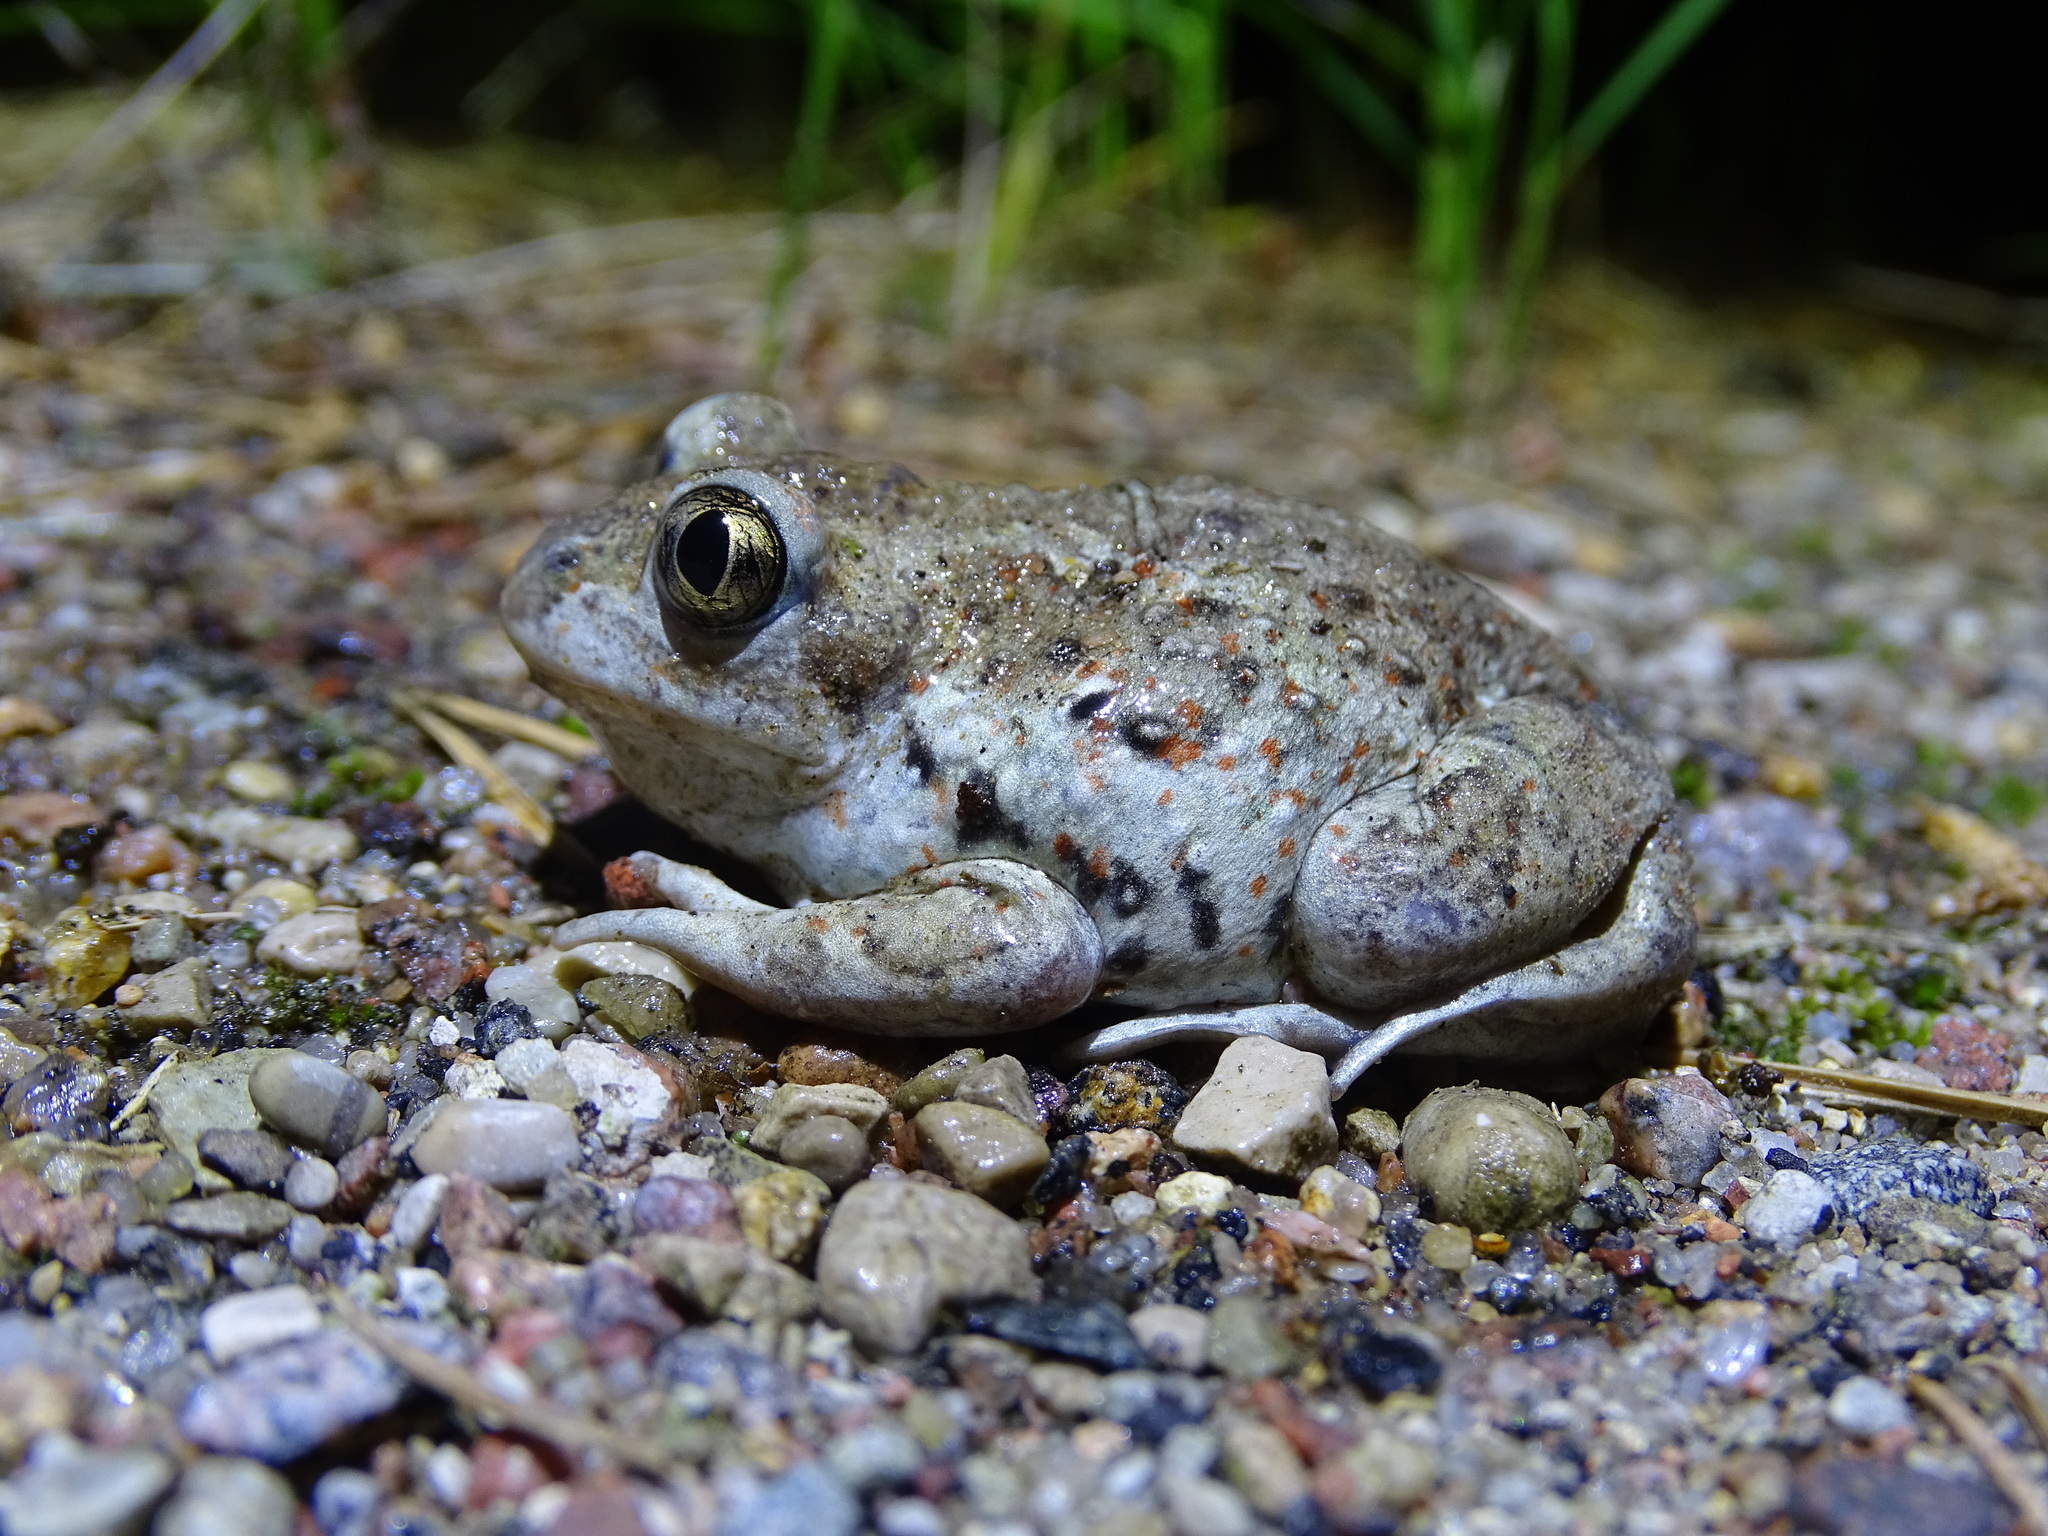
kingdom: Animalia
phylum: Chordata
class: Amphibia
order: Anura
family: Pelobatidae
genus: Pelobates
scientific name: Pelobates fuscus
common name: Common eurasian spadefoot toad
